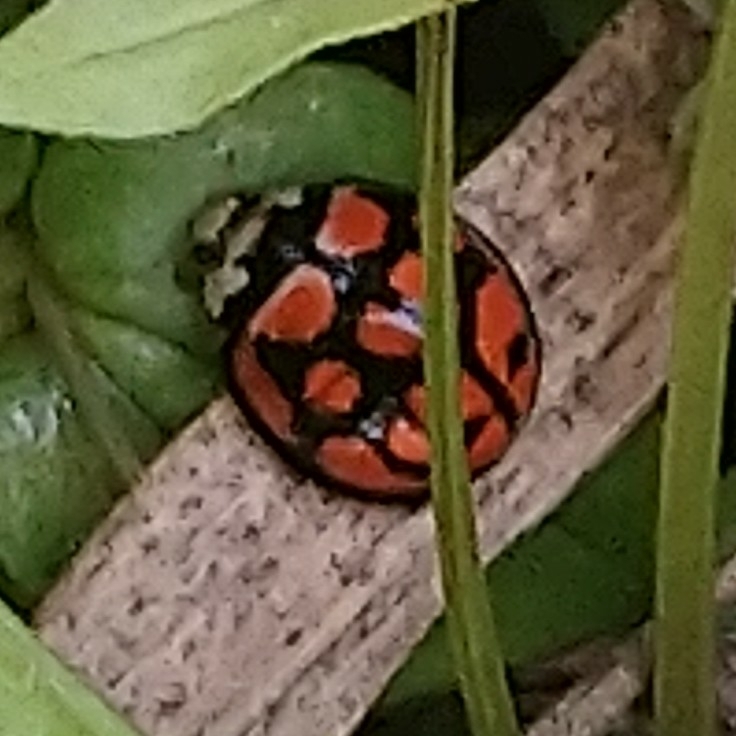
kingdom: Animalia
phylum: Arthropoda
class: Insecta
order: Coleoptera
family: Coccinellidae
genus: Cheilomenes
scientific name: Cheilomenes lunata
